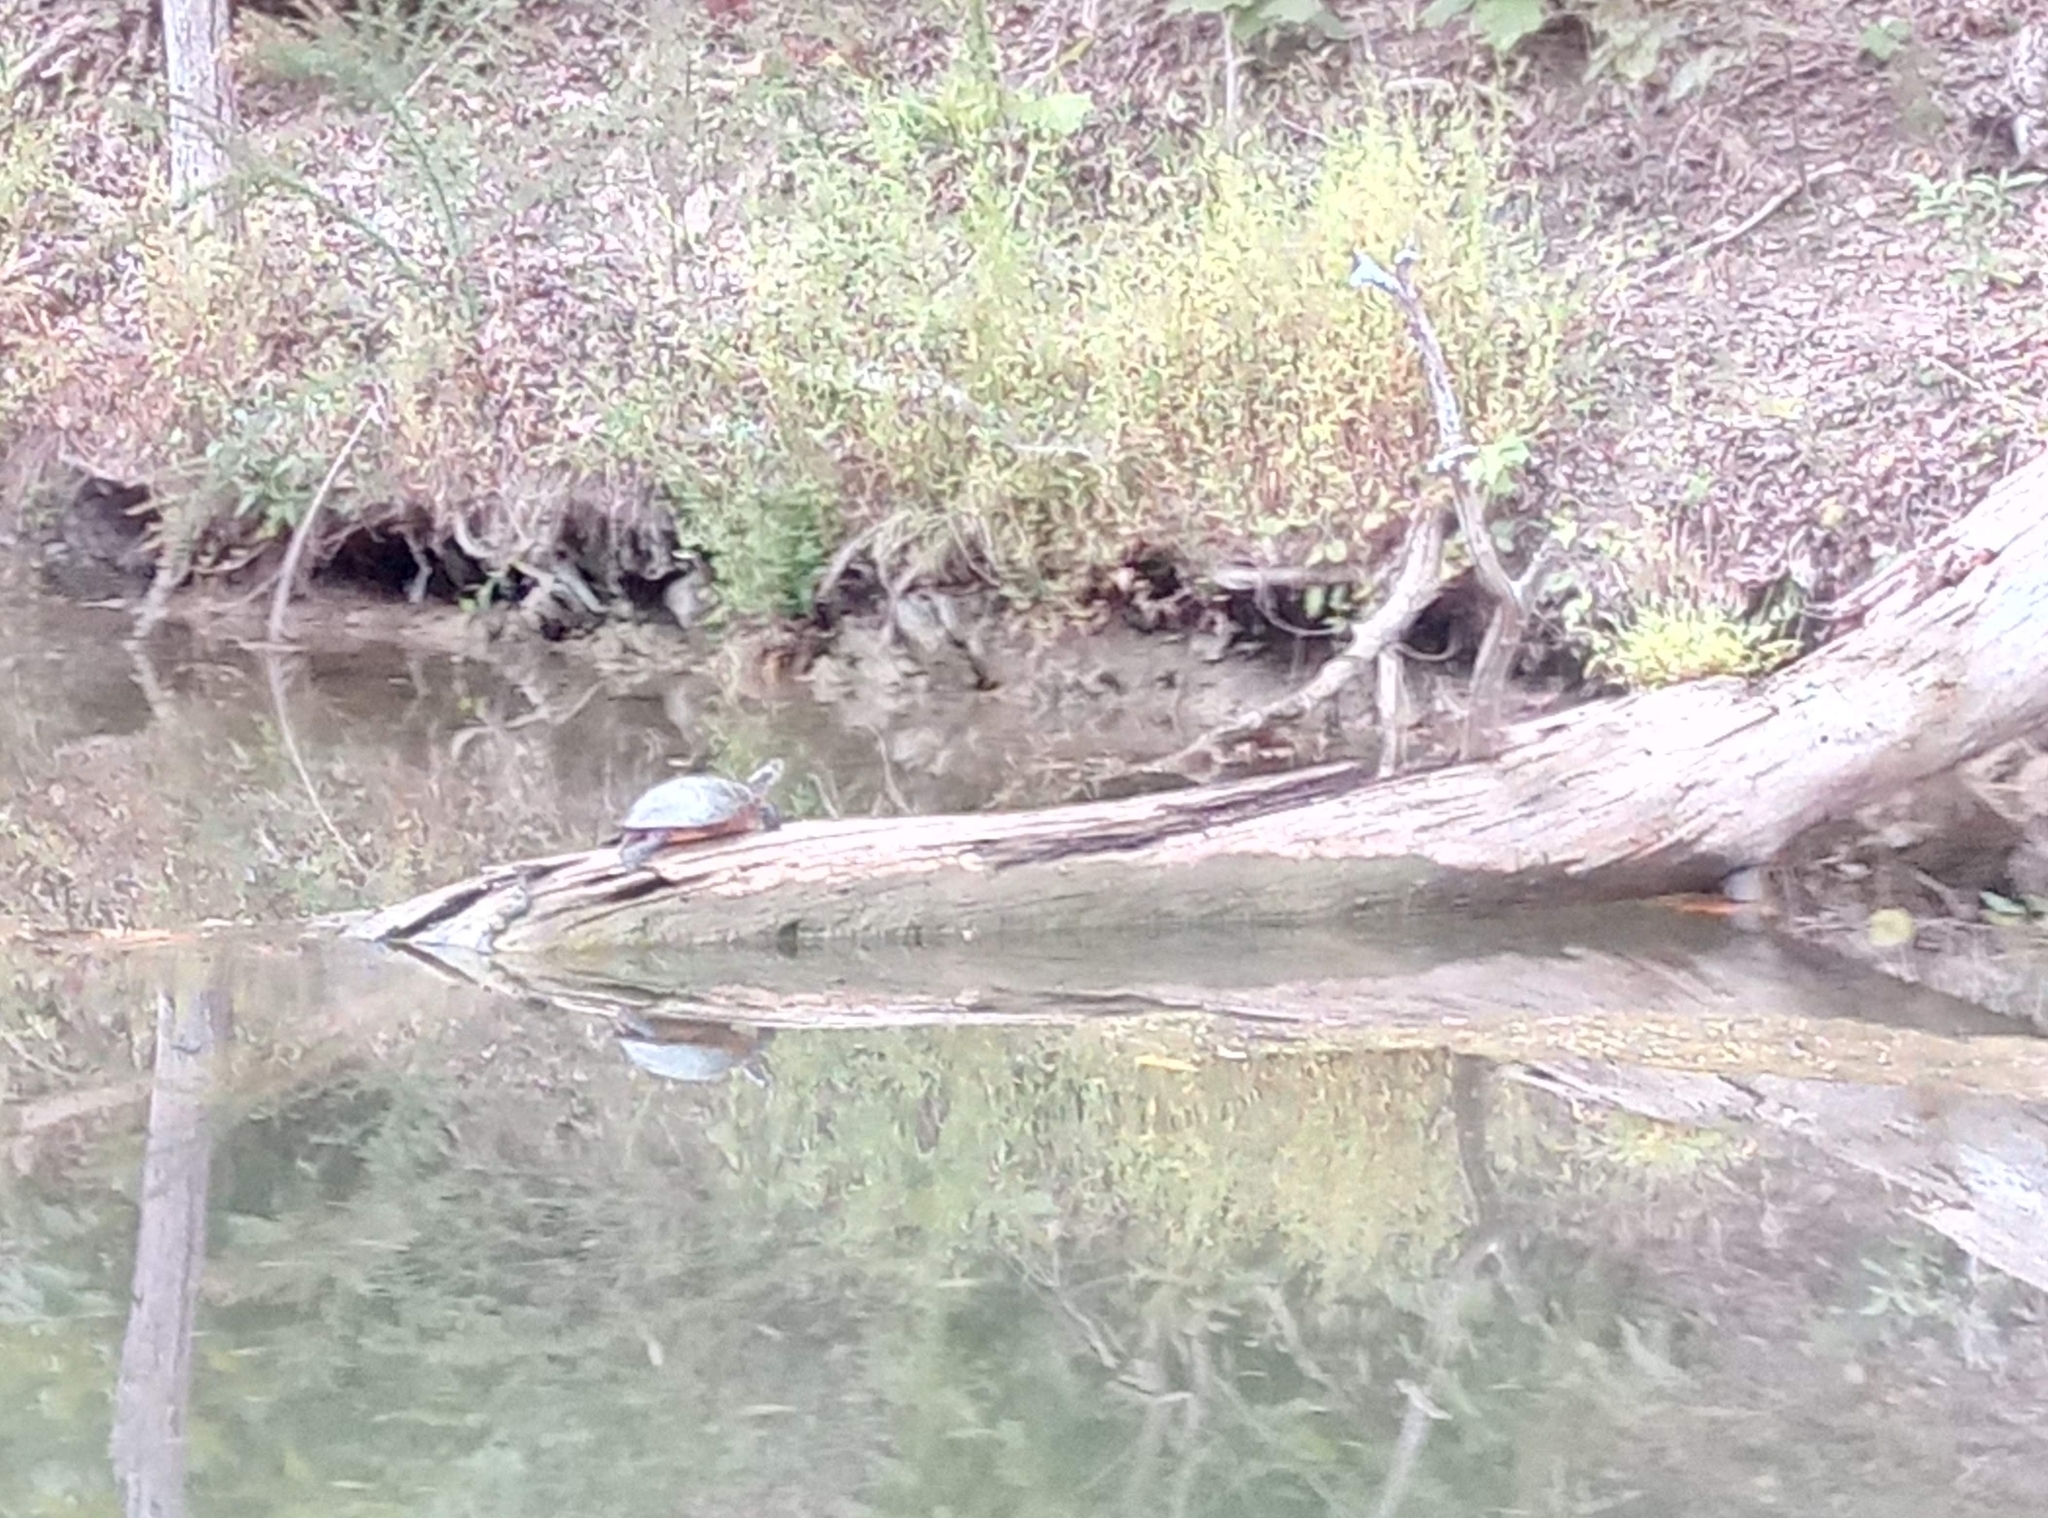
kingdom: Animalia
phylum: Chordata
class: Testudines
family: Emydidae
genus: Chrysemys
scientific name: Chrysemys picta
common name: Painted turtle
